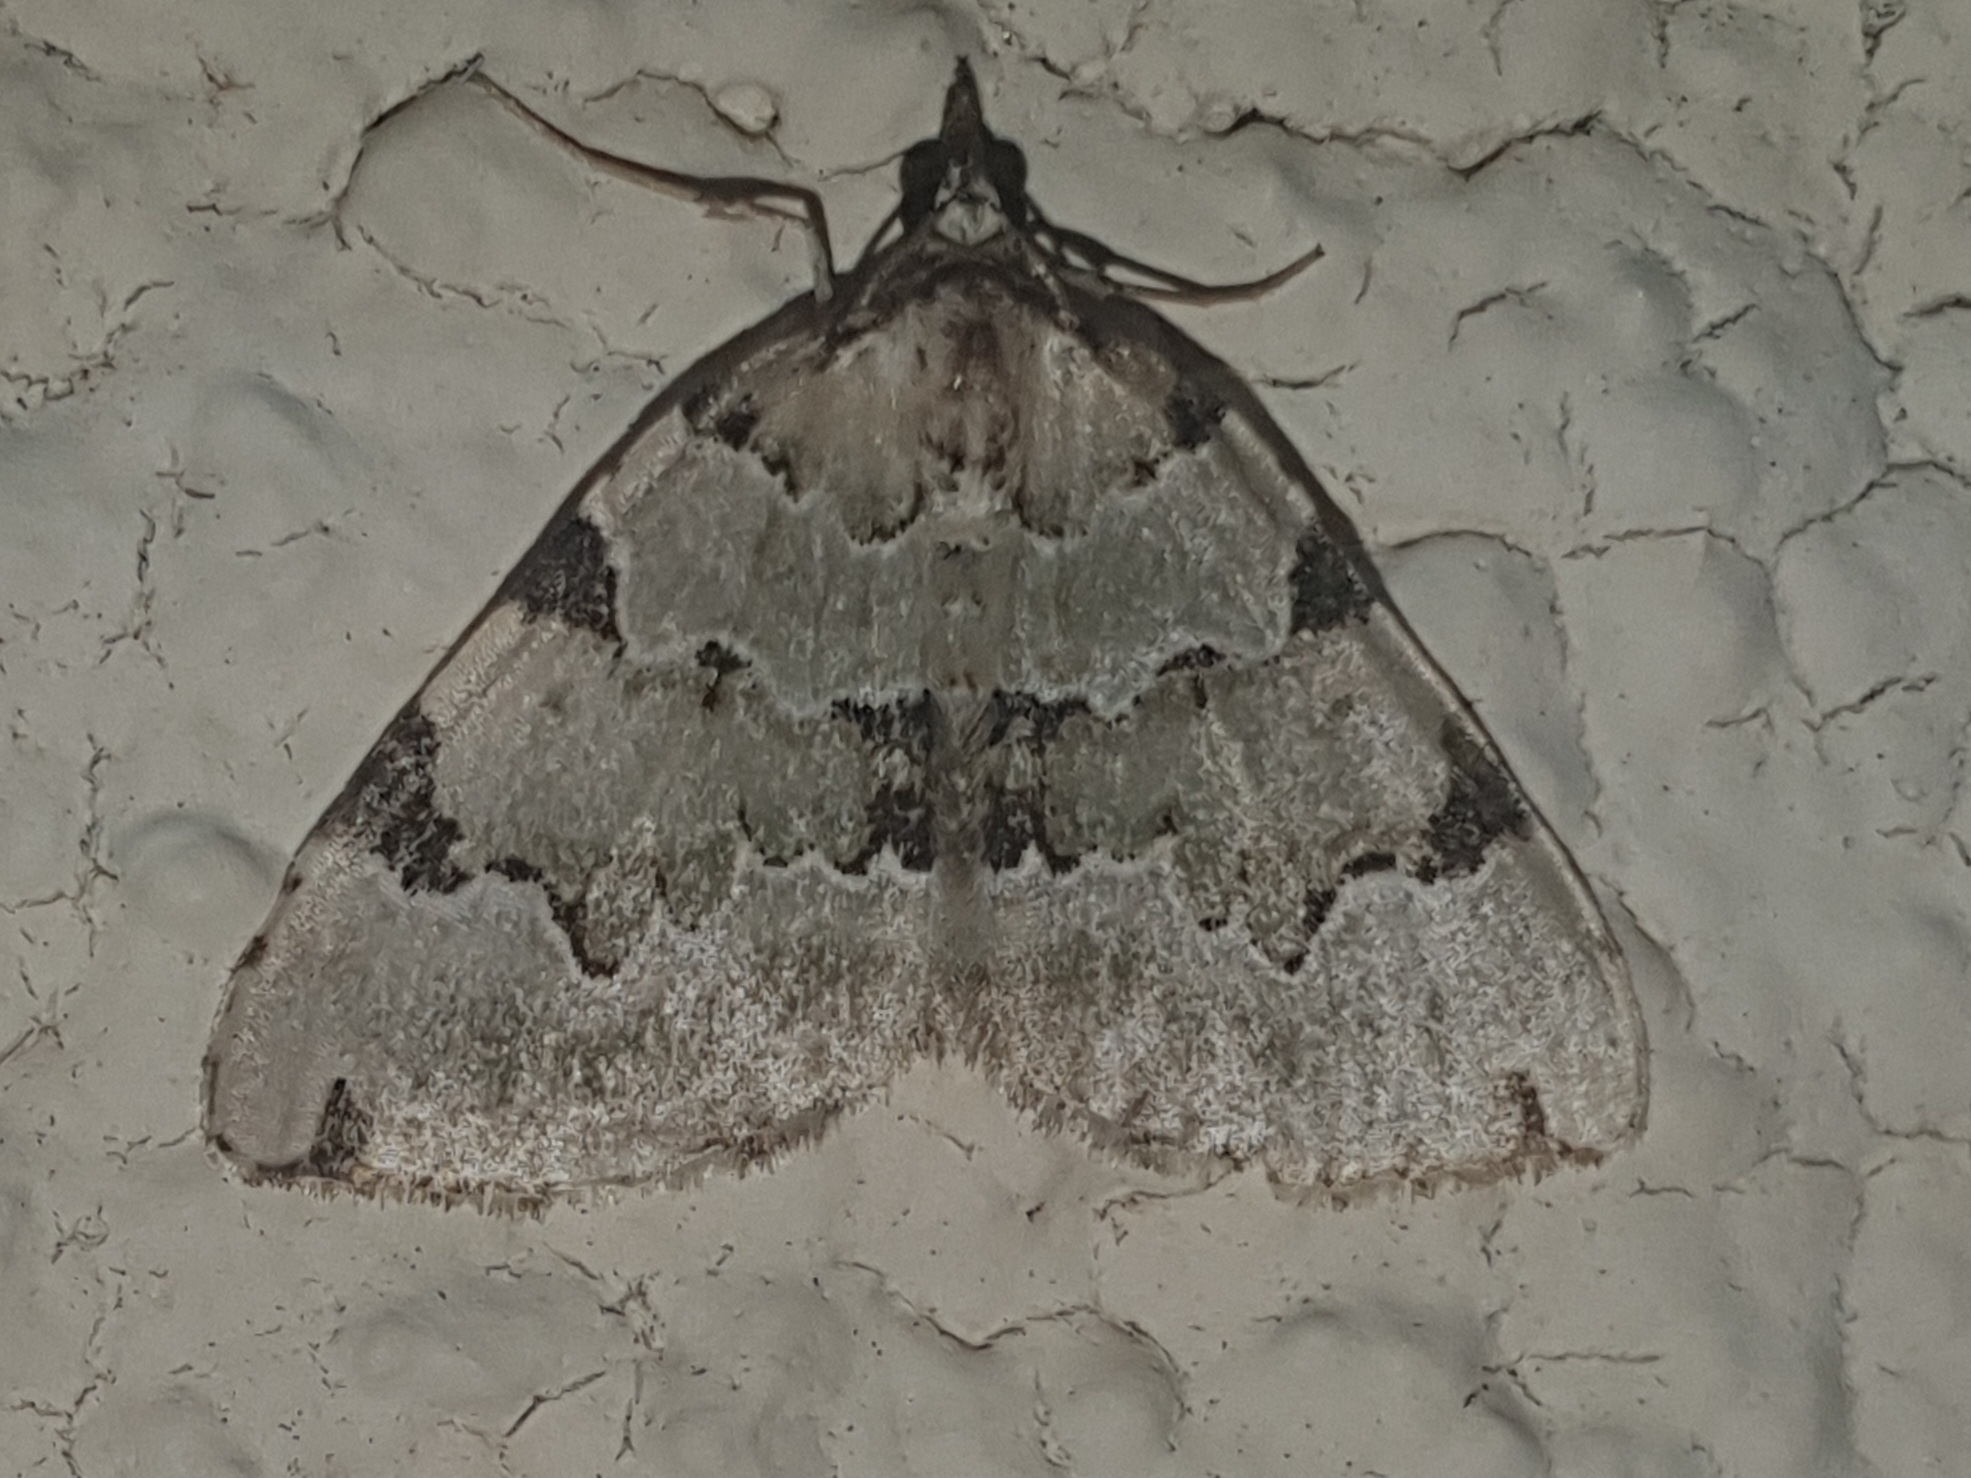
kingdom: Animalia
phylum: Arthropoda
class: Insecta
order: Lepidoptera
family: Geometridae
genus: Colostygia
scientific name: Colostygia pectinataria
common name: Green carpet
